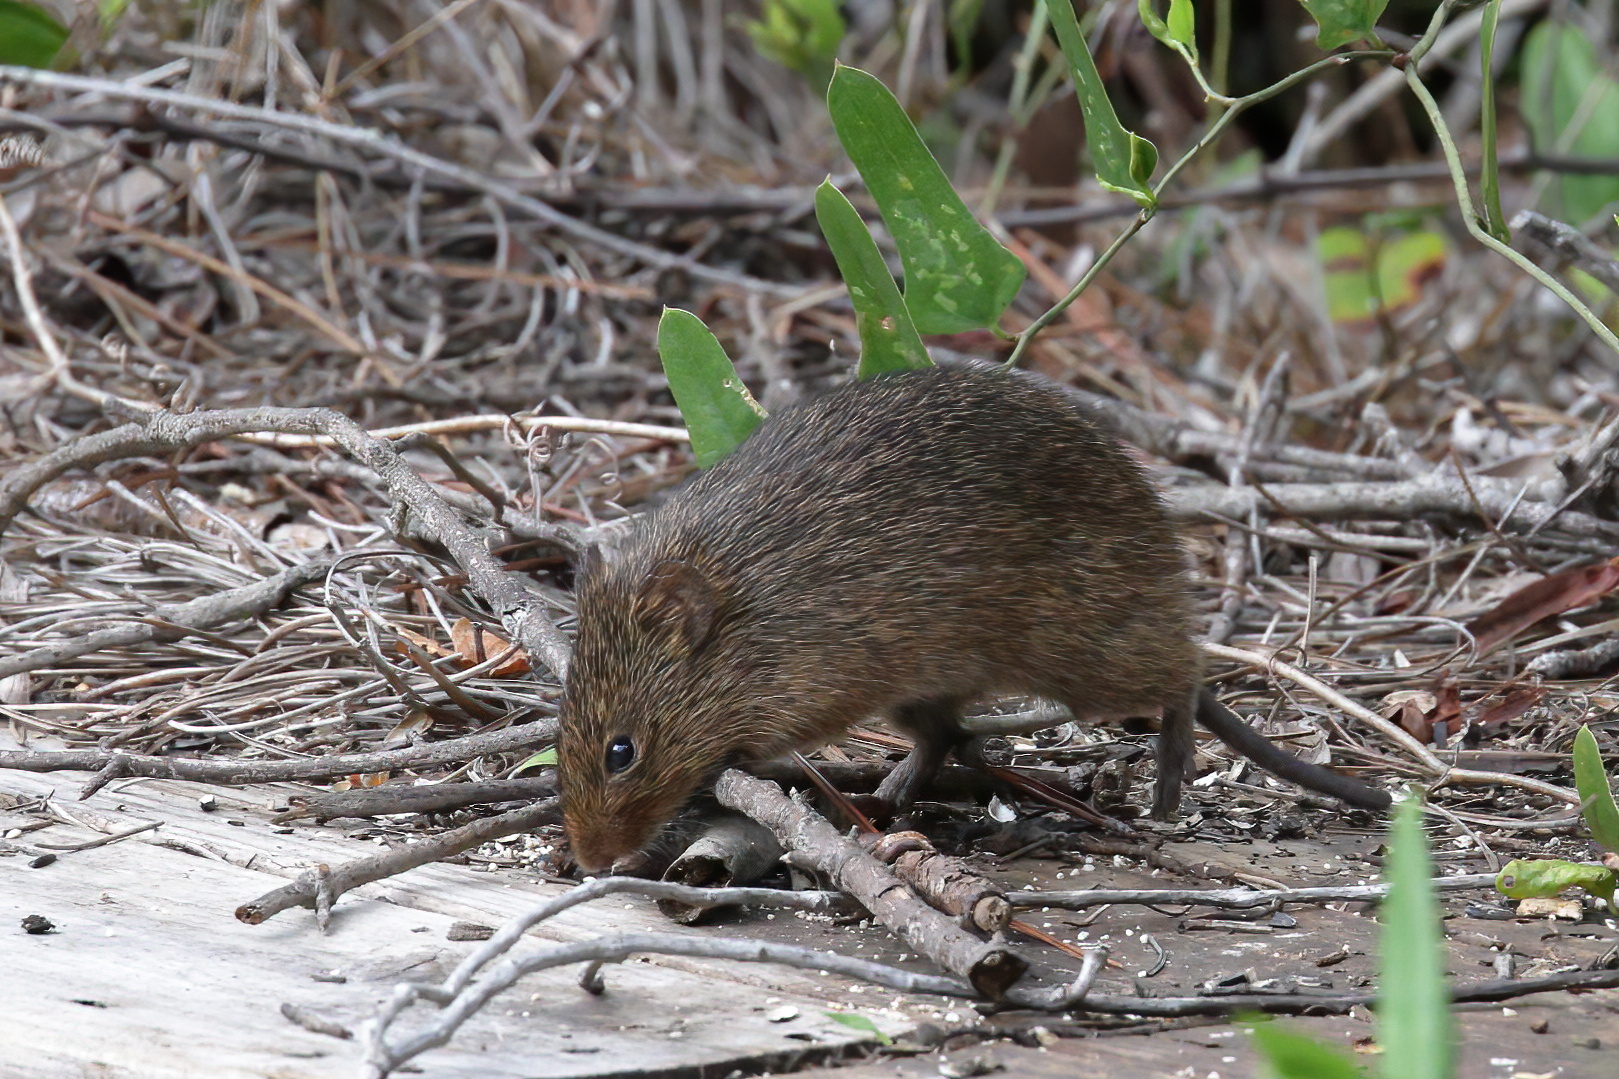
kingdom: Animalia
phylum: Chordata
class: Mammalia
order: Rodentia
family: Cricetidae
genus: Sigmodon
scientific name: Sigmodon hispidus
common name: Hispid cotton rat
